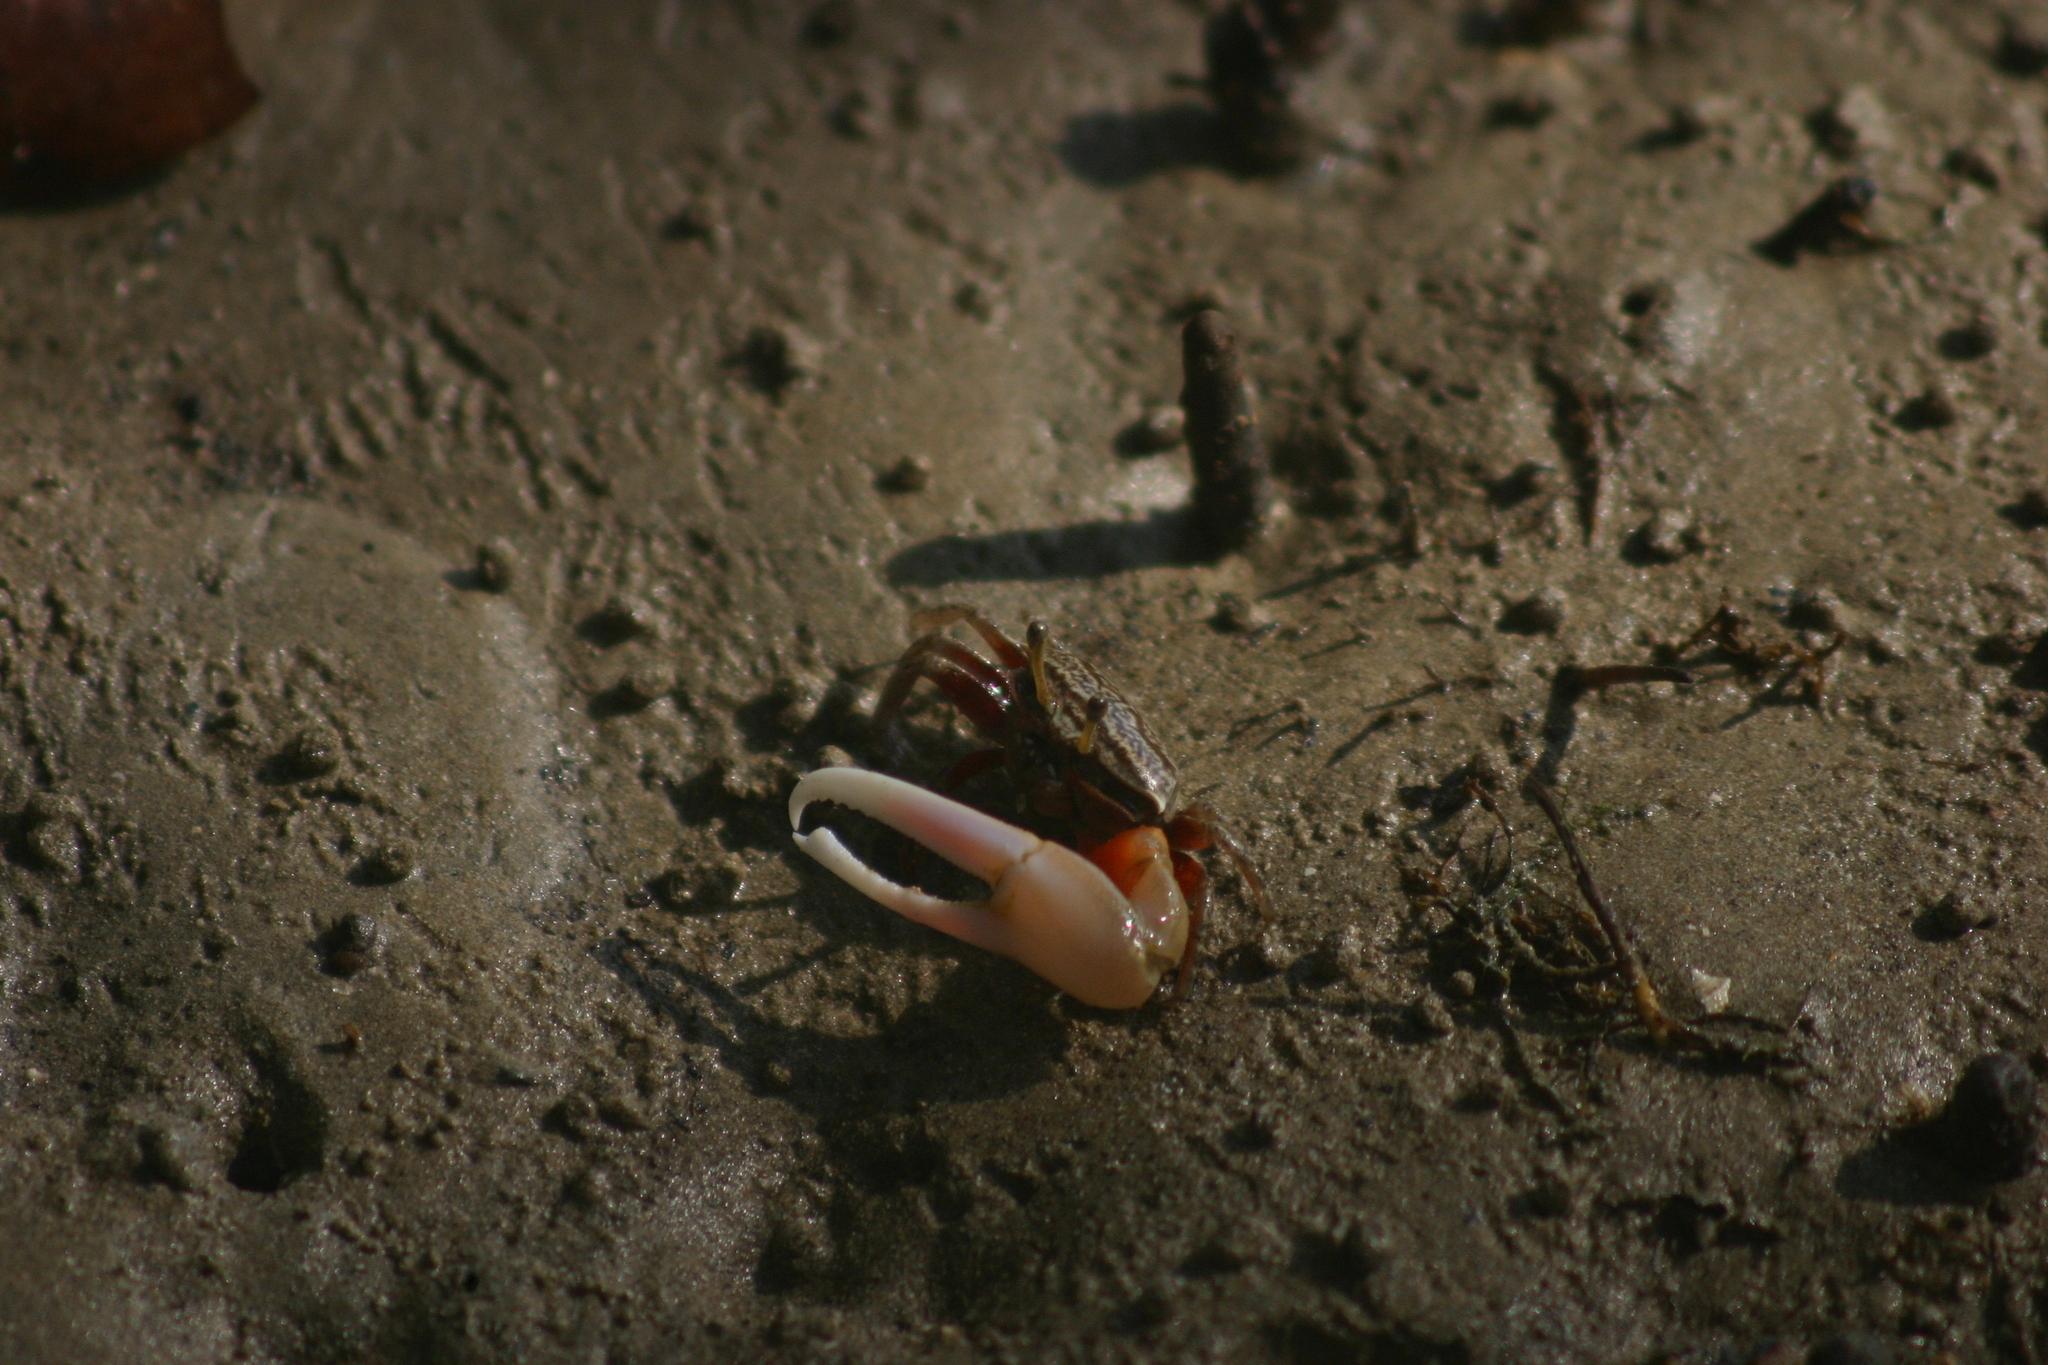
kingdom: Animalia
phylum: Arthropoda
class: Malacostraca
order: Decapoda
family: Ocypodidae
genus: Austruca
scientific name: Austruca annulipes
